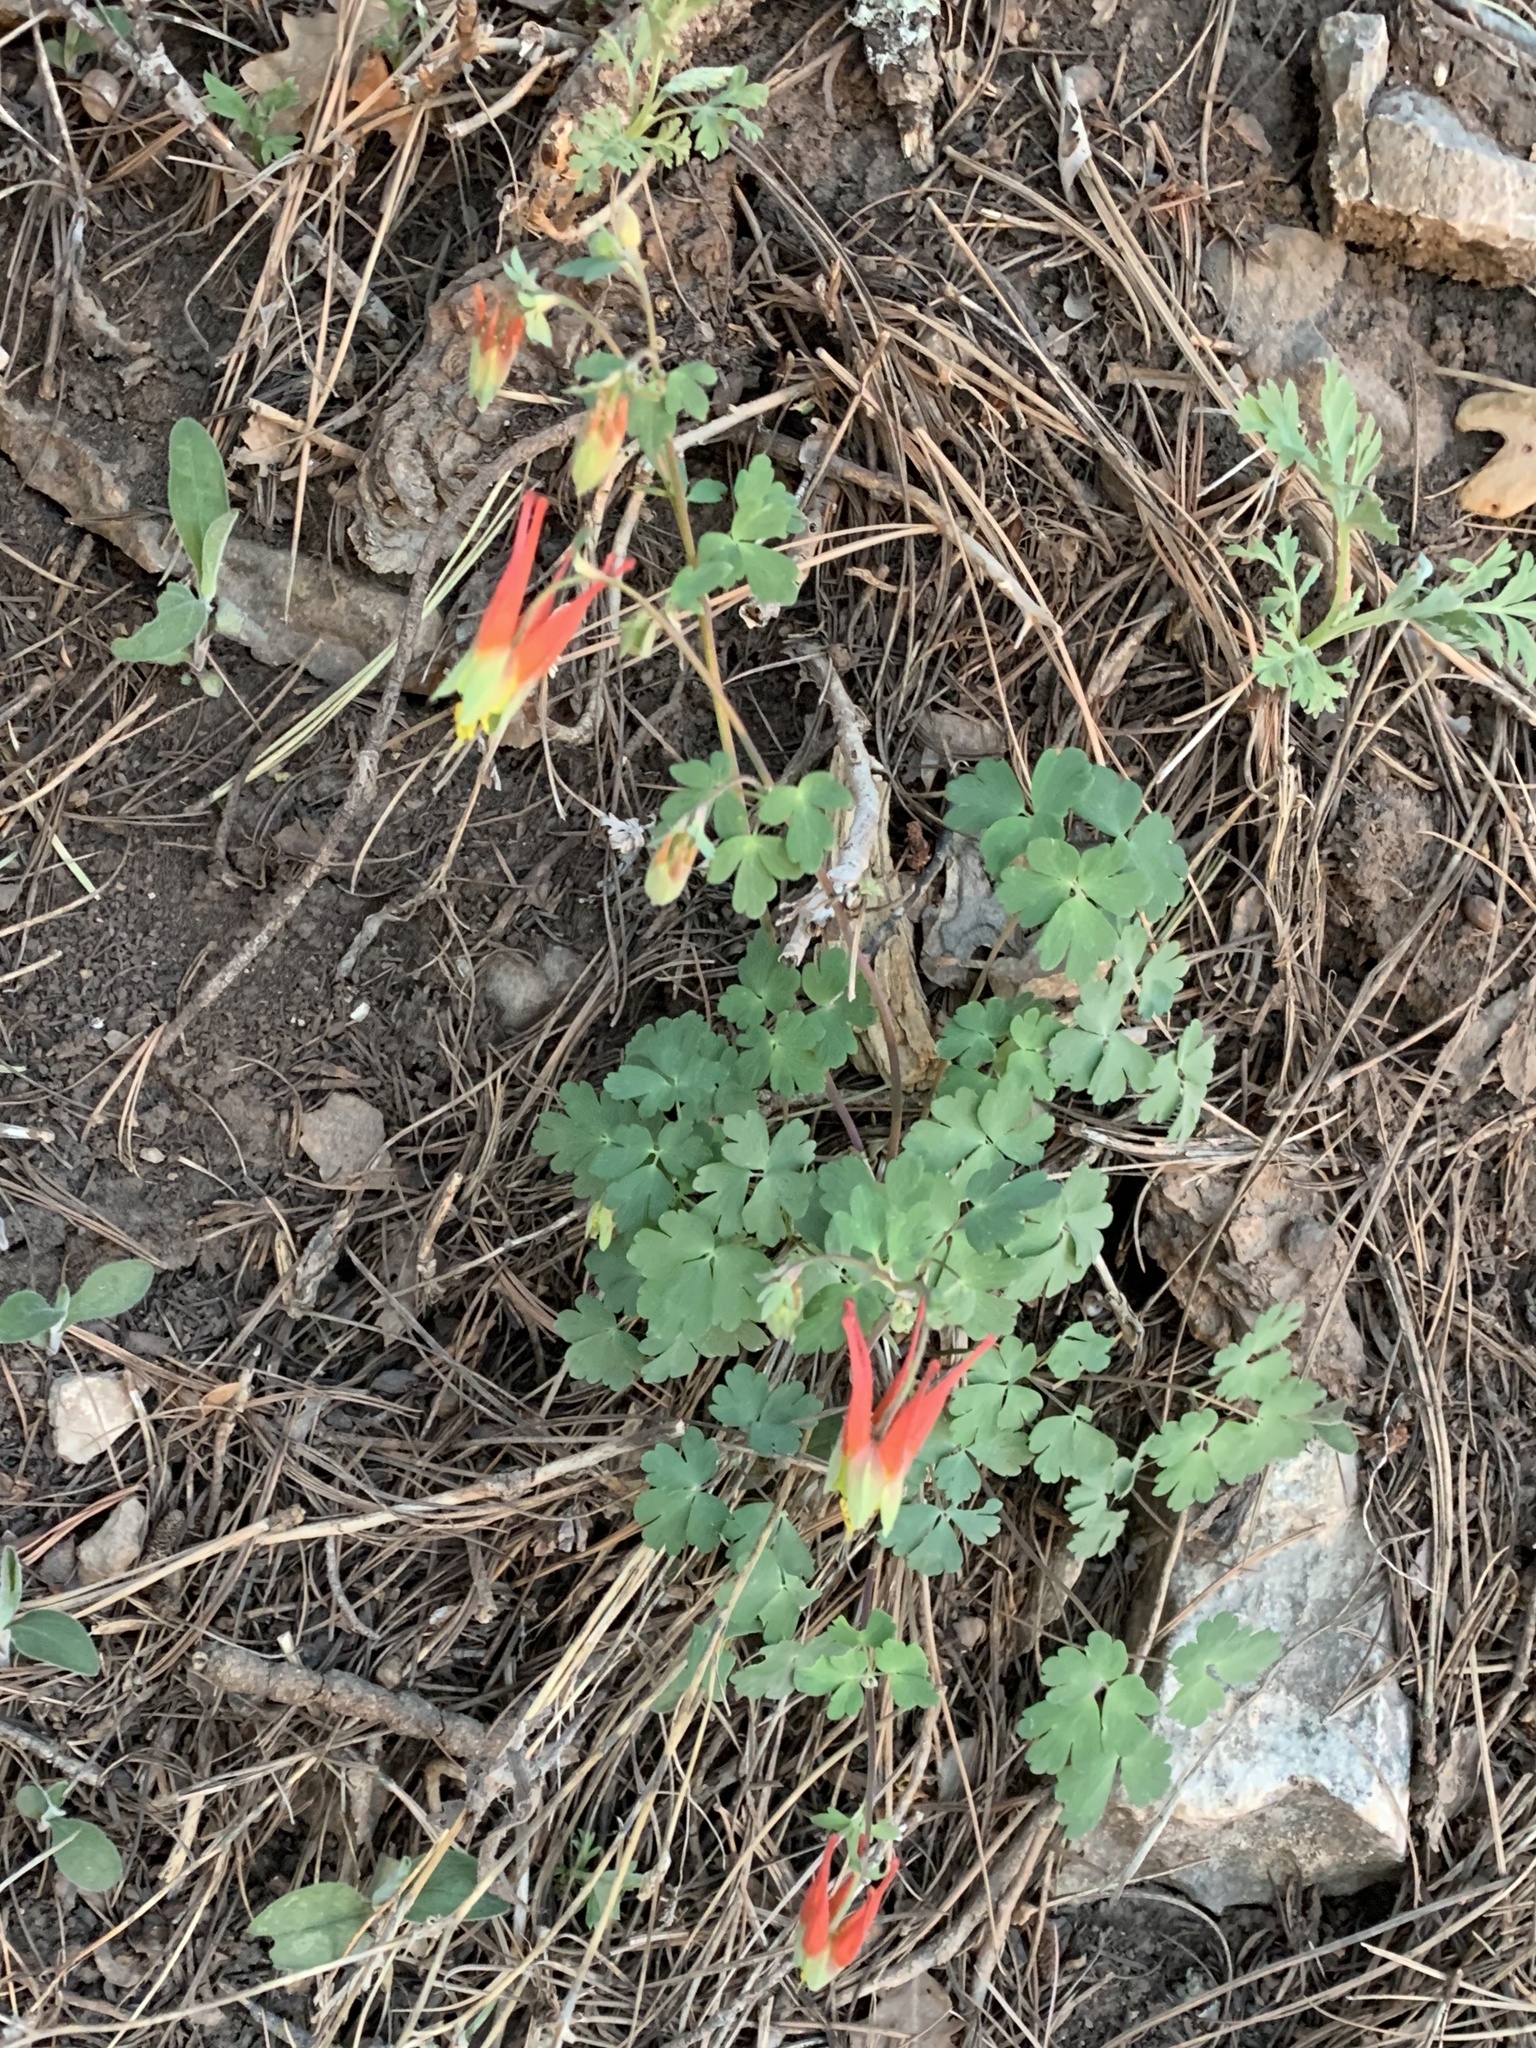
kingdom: Plantae
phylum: Tracheophyta
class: Magnoliopsida
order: Ranunculales
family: Ranunculaceae
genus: Aquilegia
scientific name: Aquilegia elegantula
